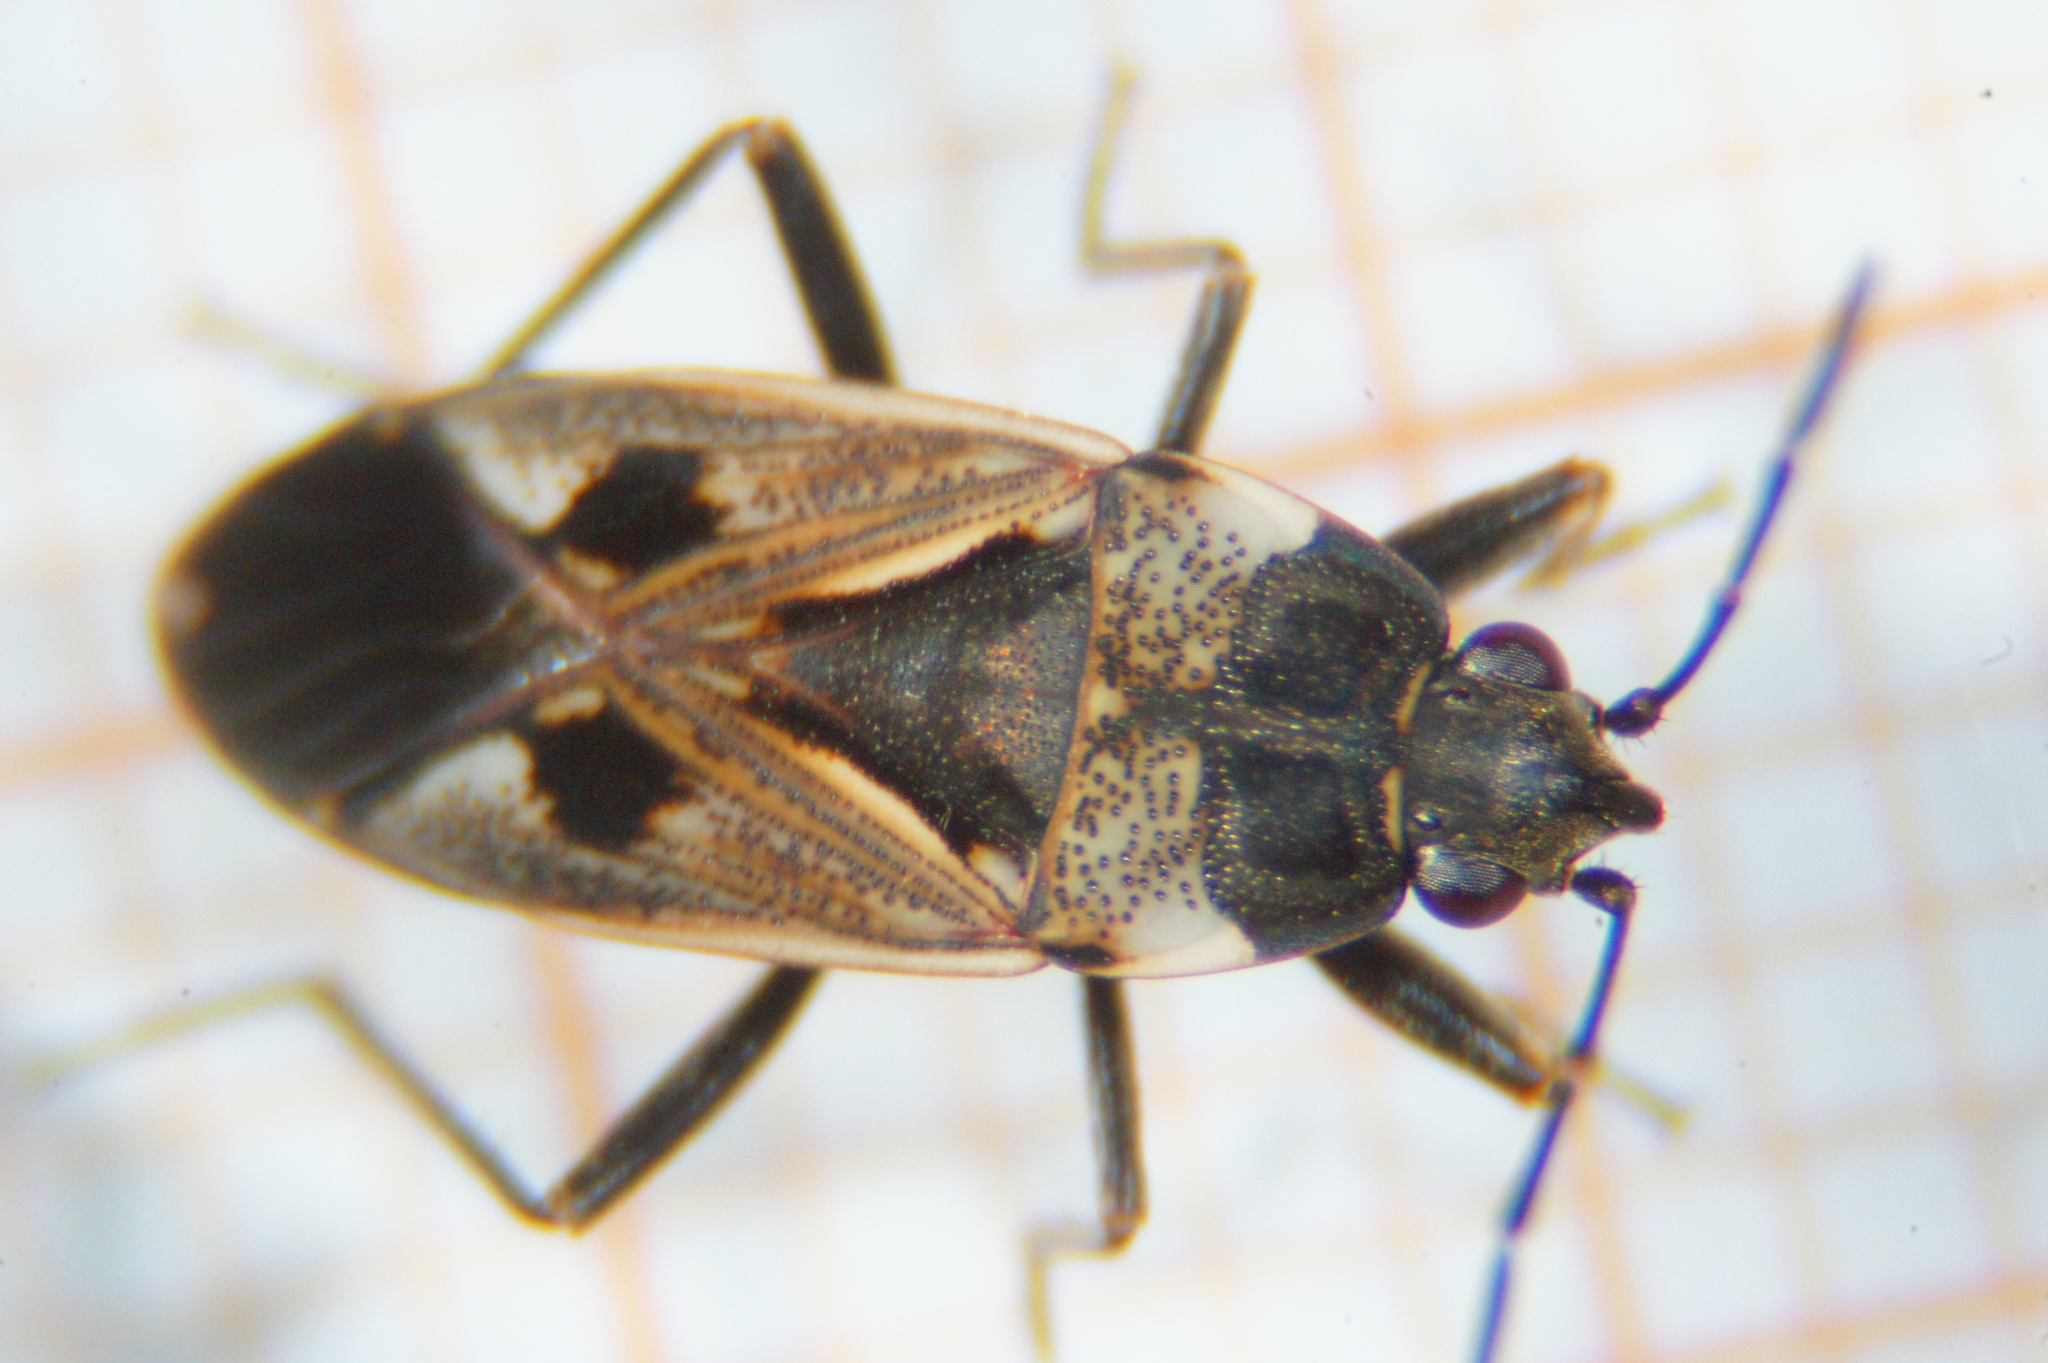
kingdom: Animalia
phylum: Arthropoda
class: Insecta
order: Hemiptera
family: Rhyparochromidae
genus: Rhyparochromus
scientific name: Rhyparochromus vulgaris
